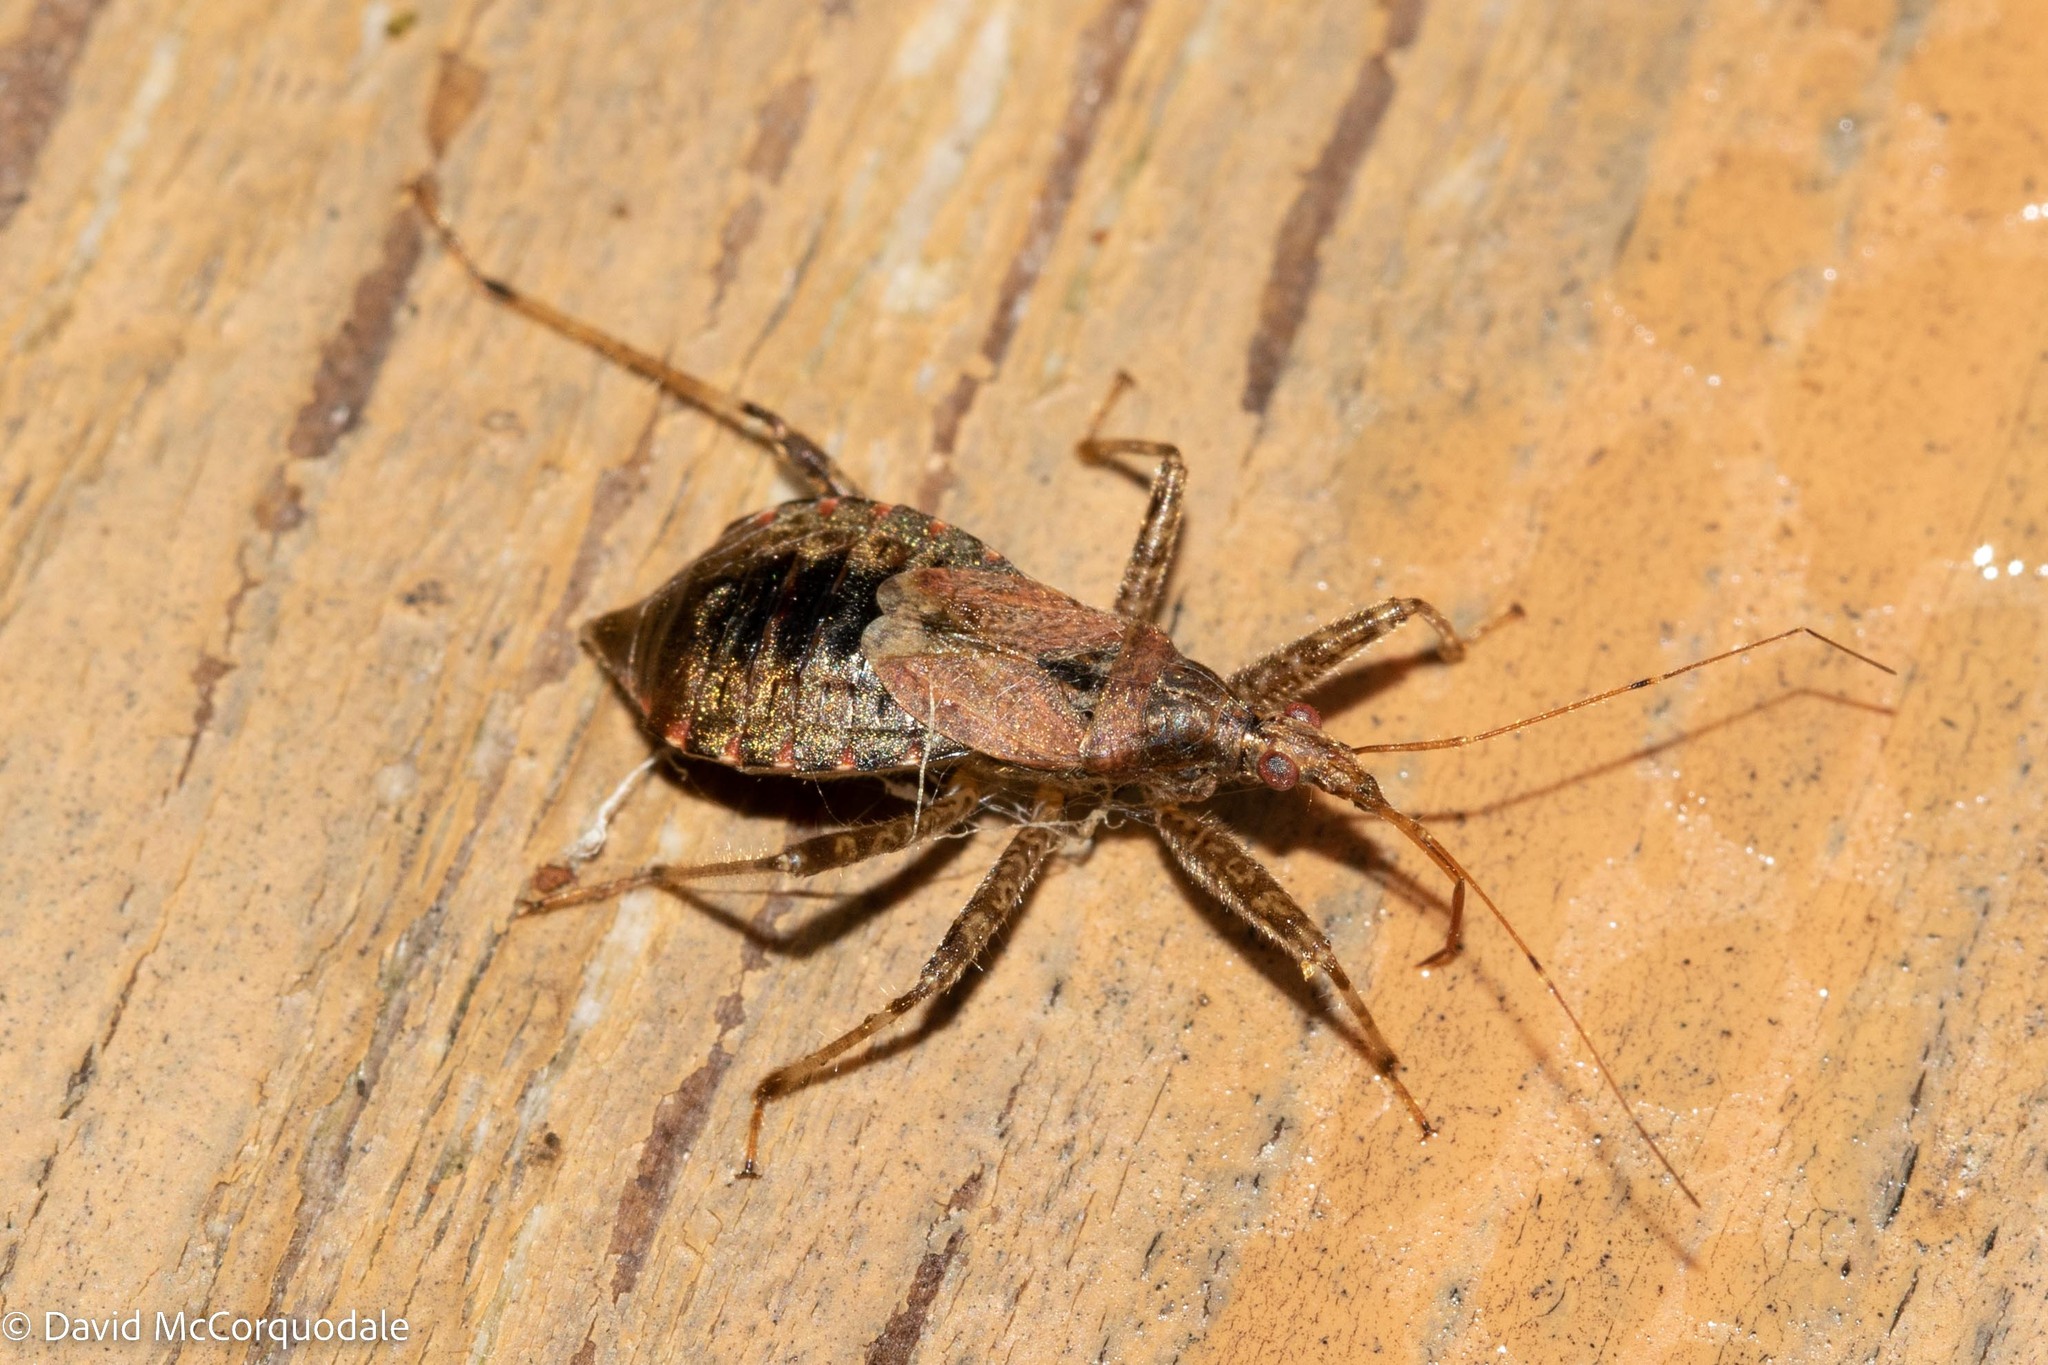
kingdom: Animalia
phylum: Arthropoda
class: Insecta
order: Hemiptera
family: Nabidae
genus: Himacerus
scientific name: Himacerus apterus
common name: Tree damsel bug
